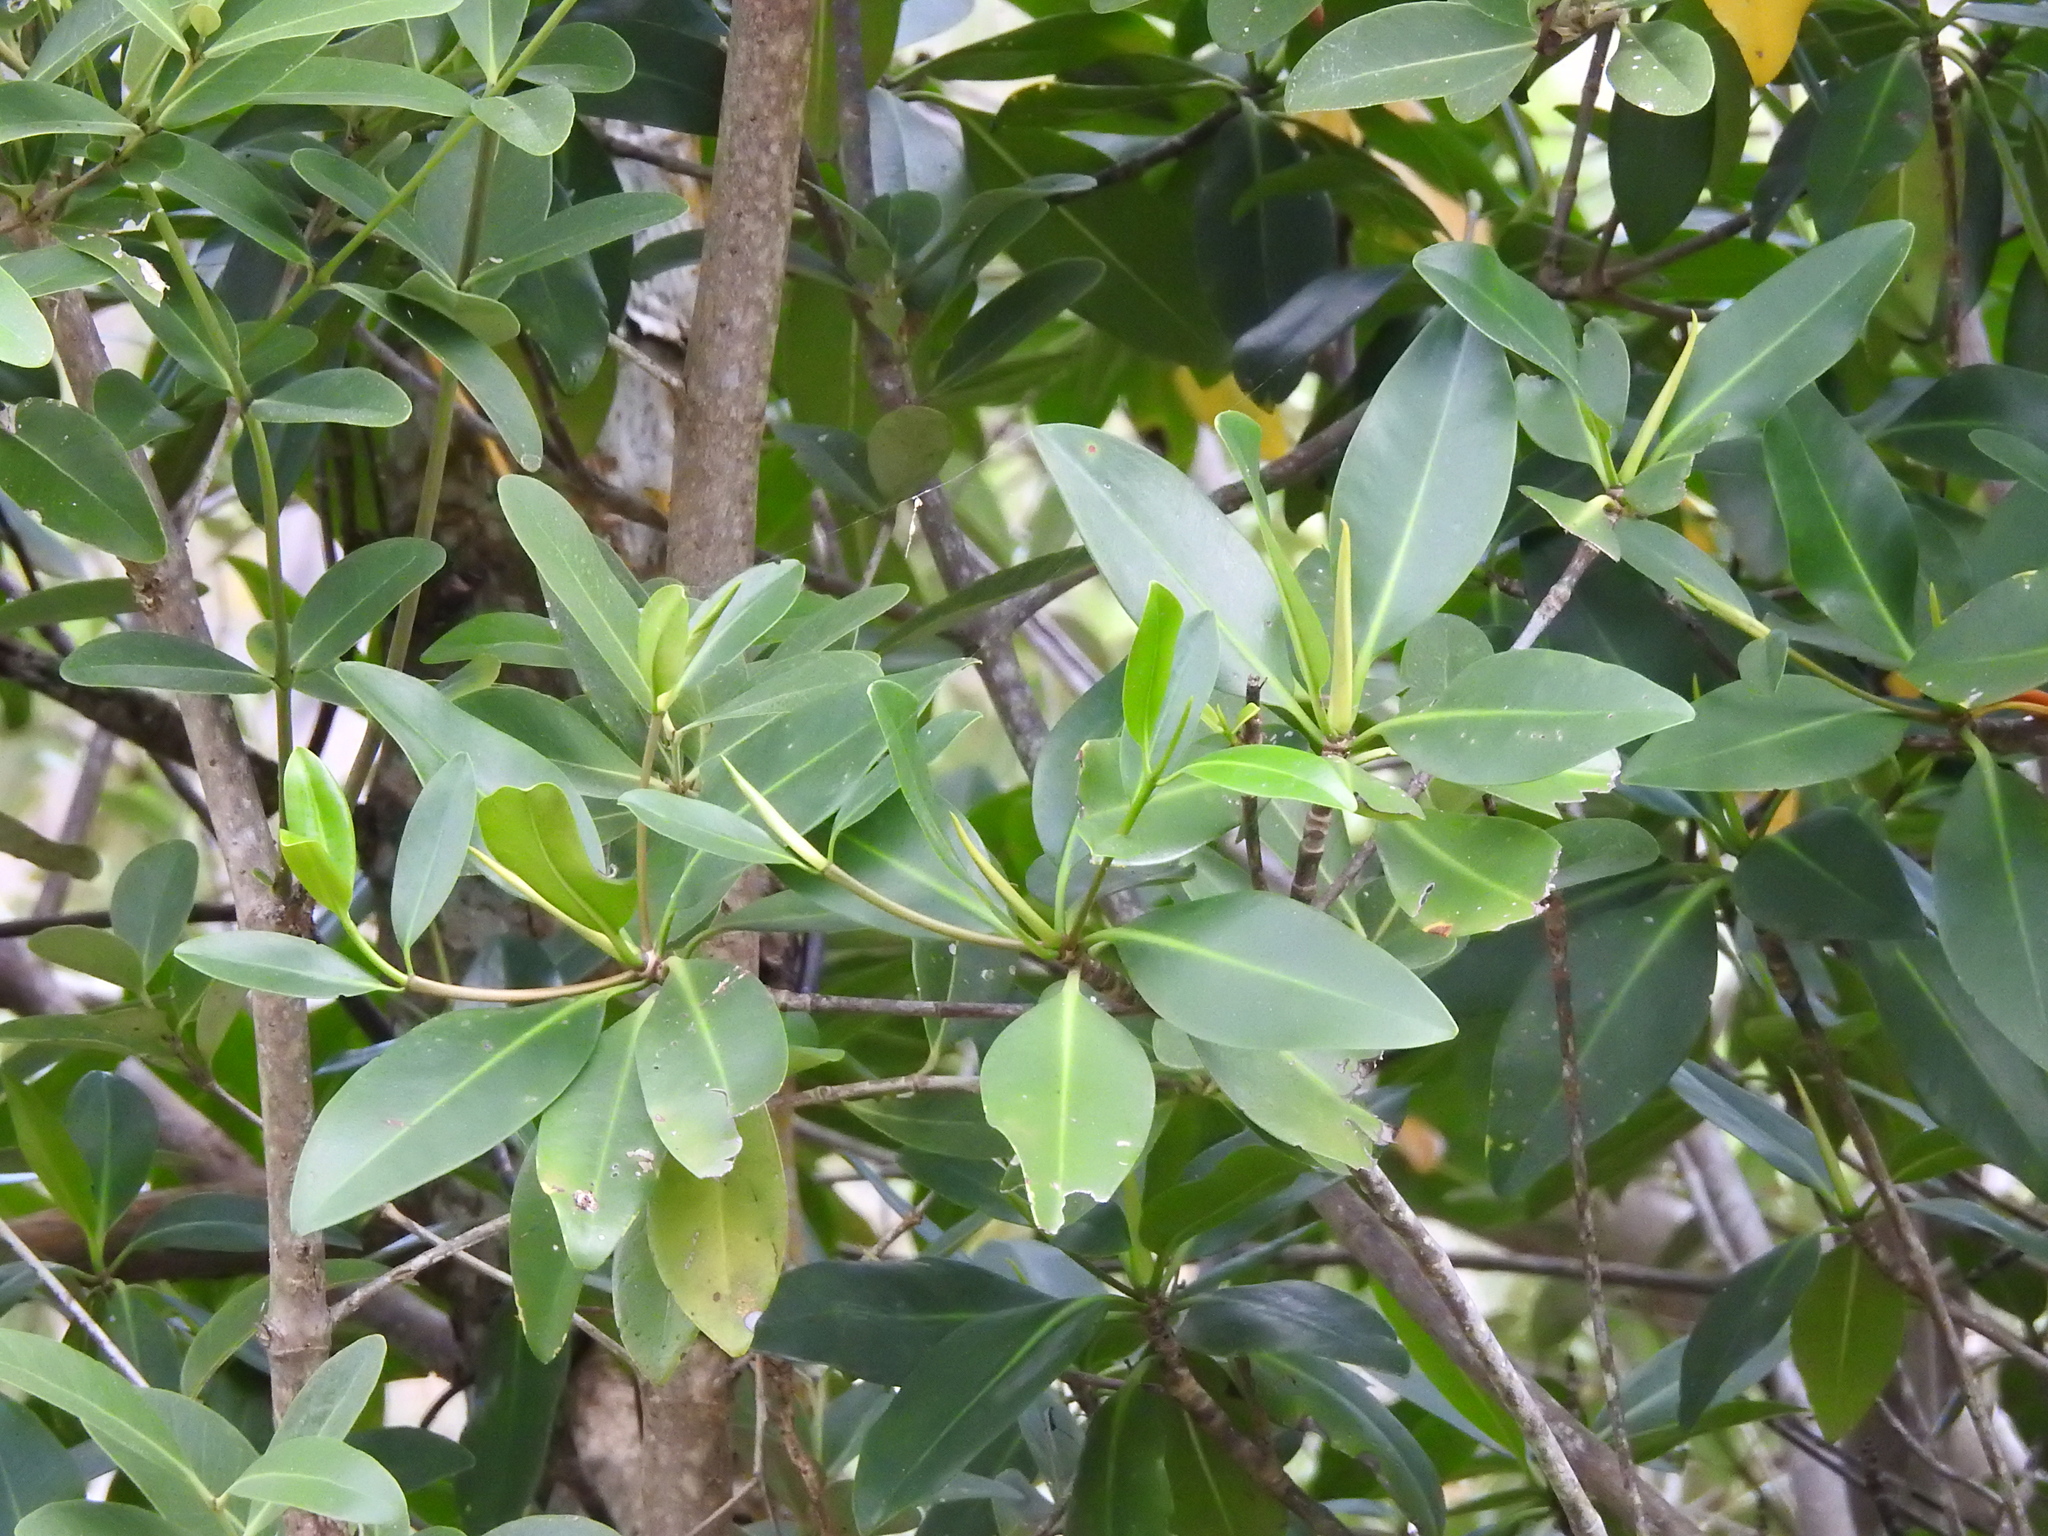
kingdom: Plantae
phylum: Tracheophyta
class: Magnoliopsida
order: Malpighiales
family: Rhizophoraceae
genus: Rhizophora
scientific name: Rhizophora mangle
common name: Red mangrove
